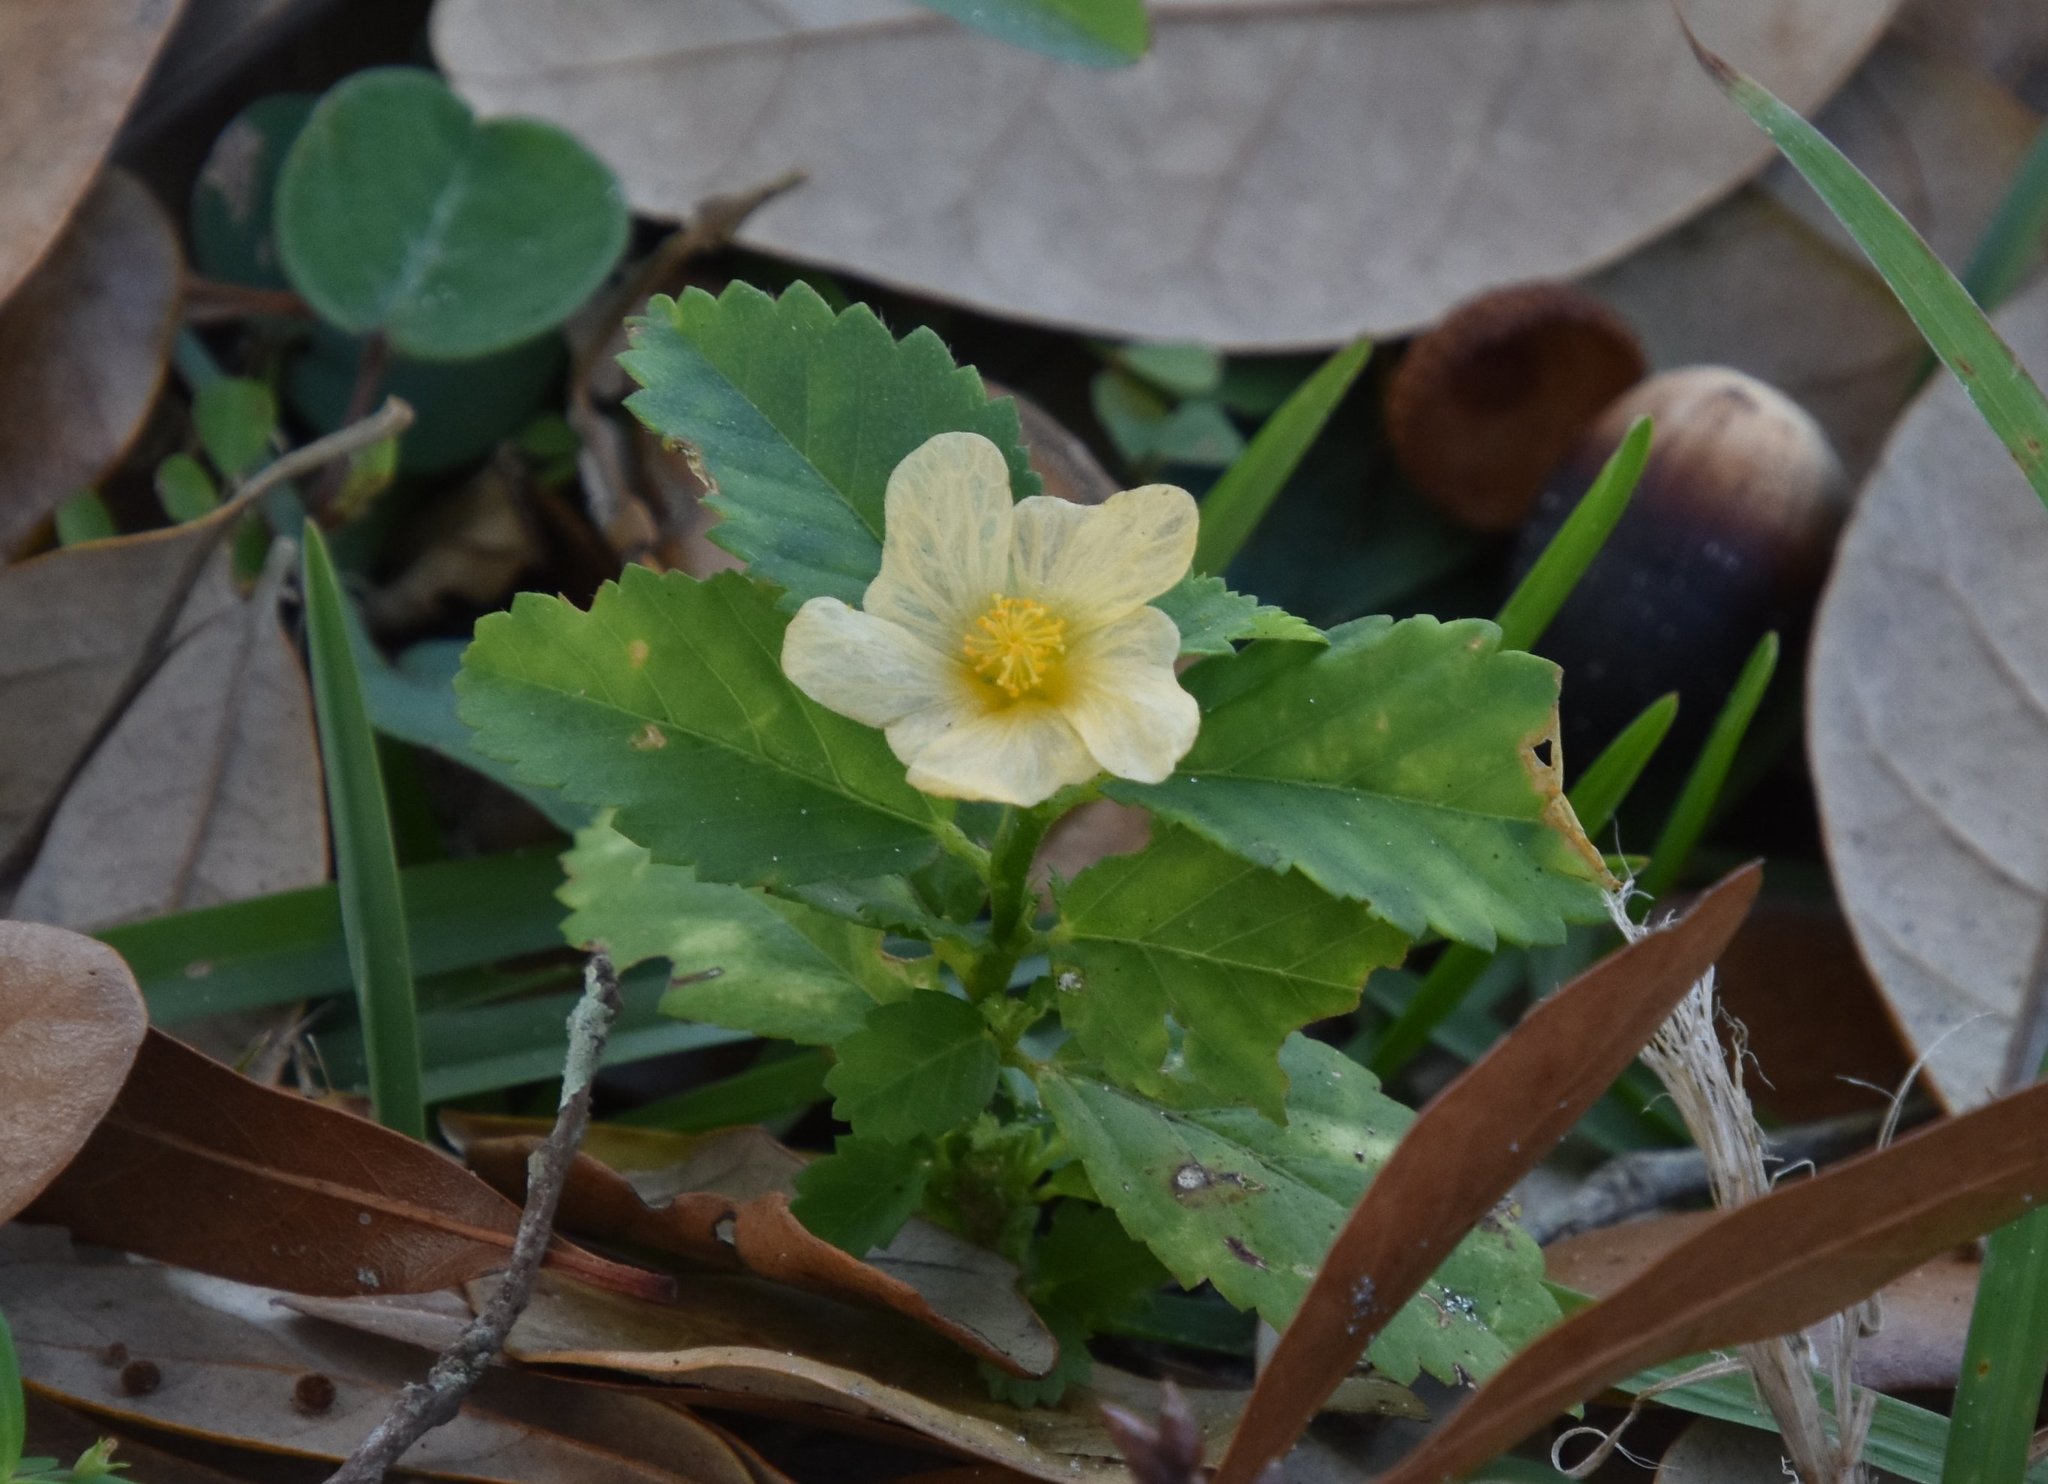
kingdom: Plantae
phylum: Tracheophyta
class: Magnoliopsida
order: Malvales
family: Malvaceae
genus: Sida
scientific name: Sida ulmifolia
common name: Broom weed
